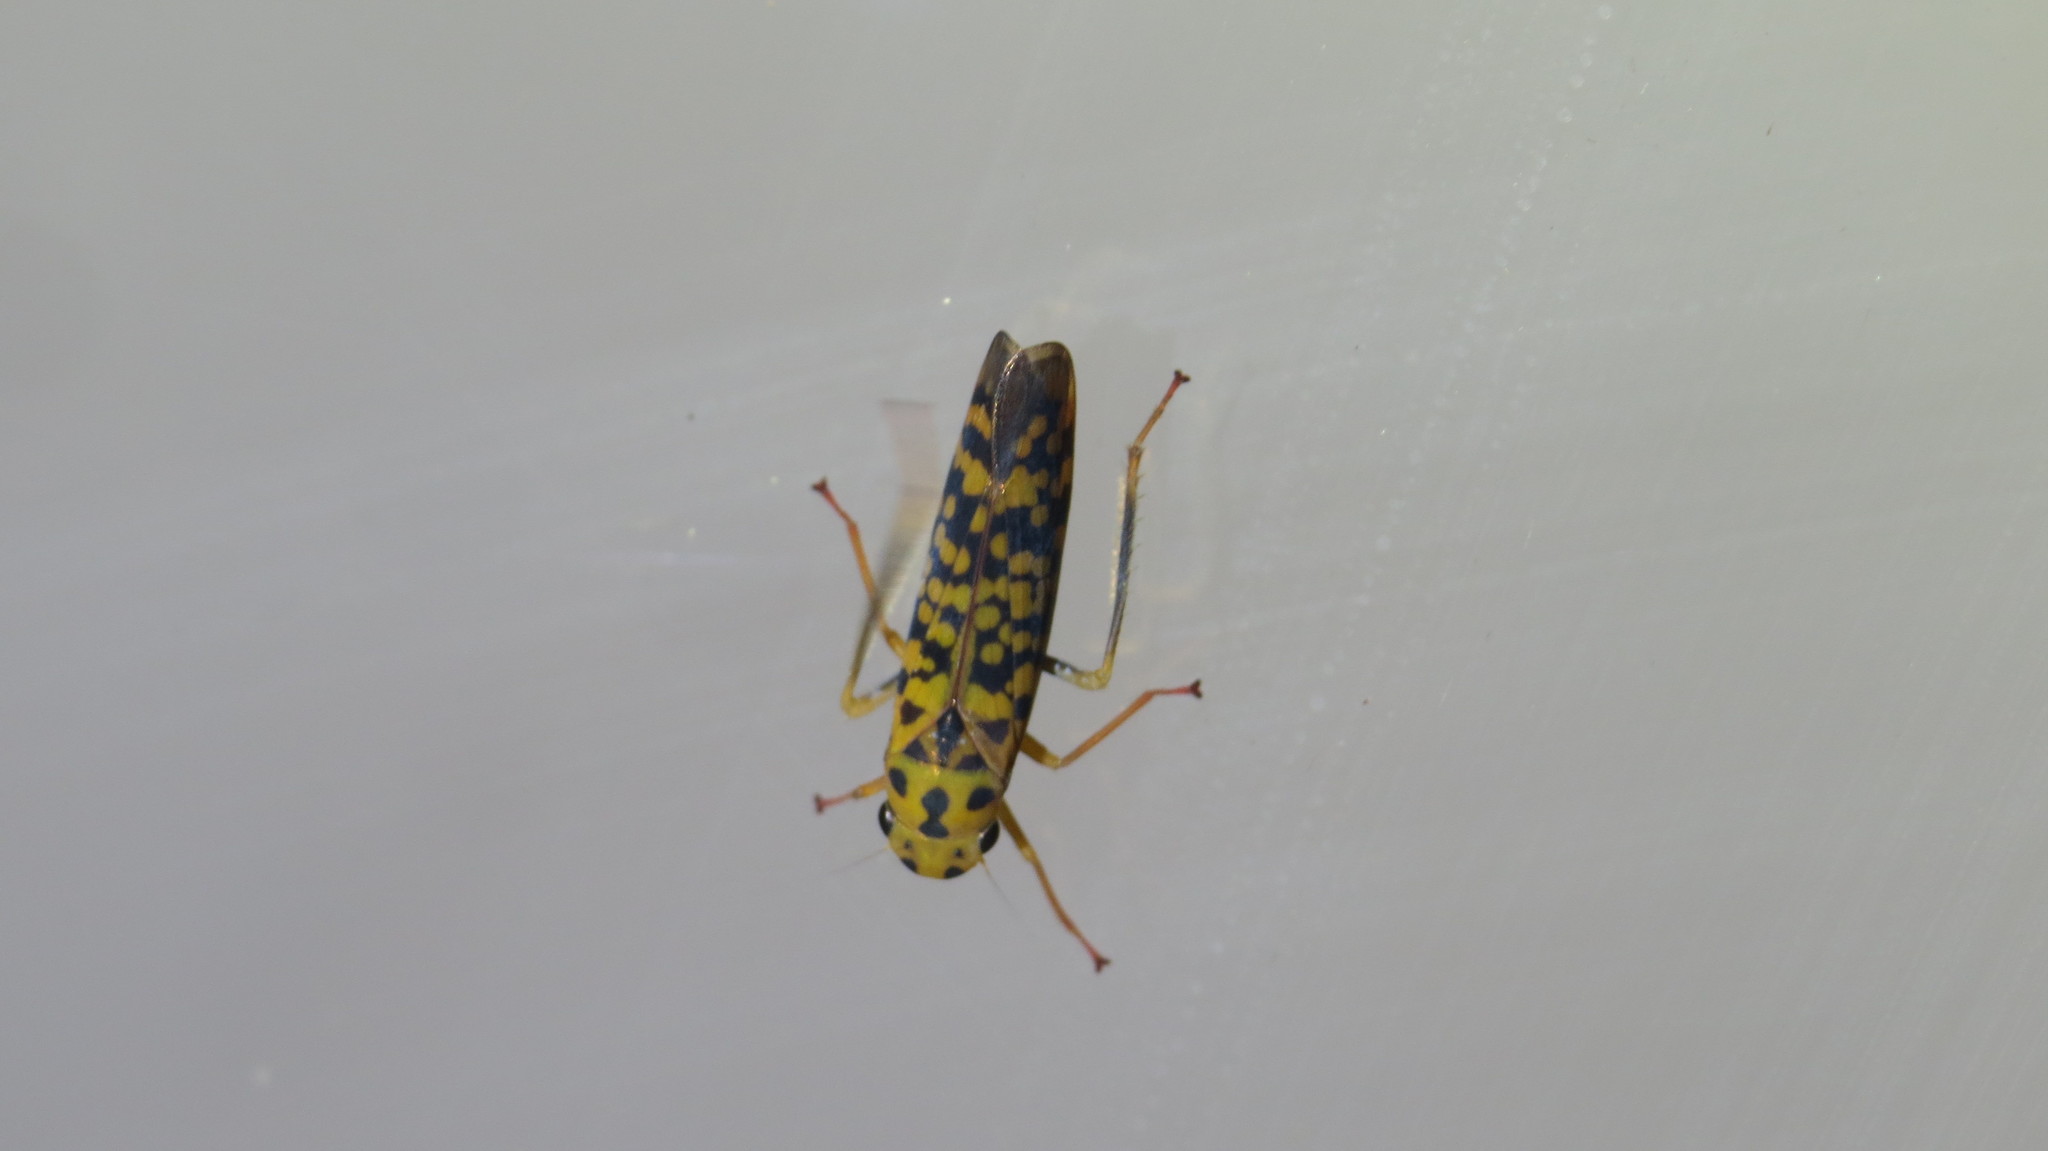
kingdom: Animalia
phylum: Arthropoda
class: Insecta
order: Hemiptera
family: Cicadellidae
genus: Pawiloma
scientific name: Pawiloma victima
